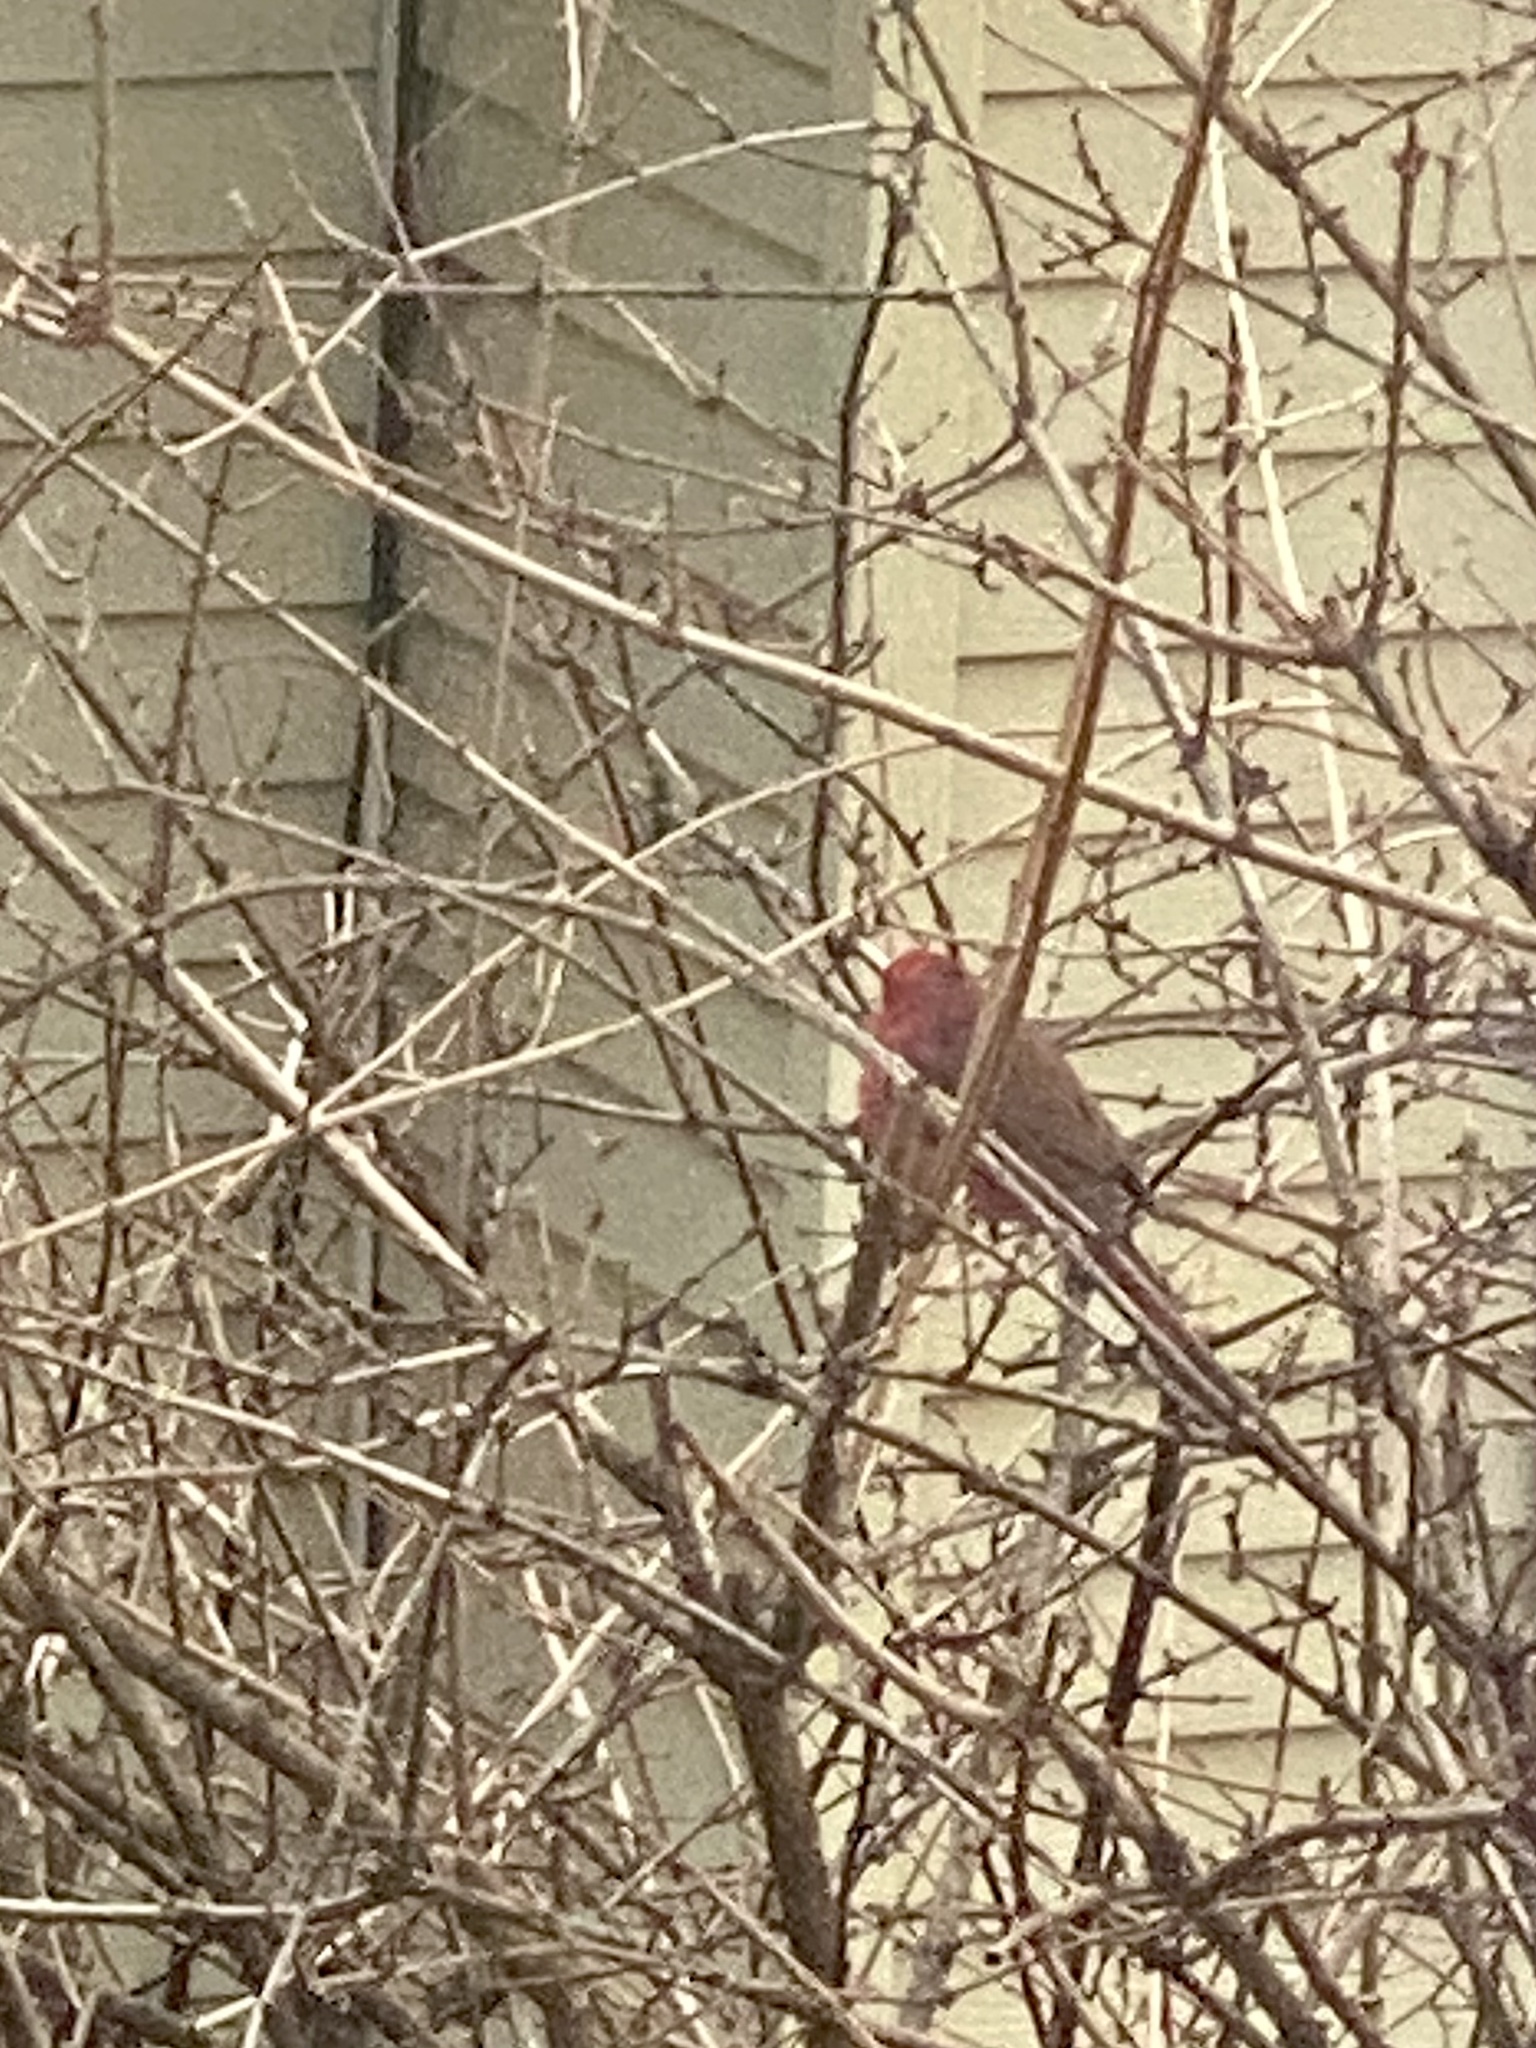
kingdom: Animalia
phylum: Chordata
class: Aves
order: Passeriformes
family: Cardinalidae
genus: Cardinalis
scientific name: Cardinalis cardinalis
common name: Northern cardinal
